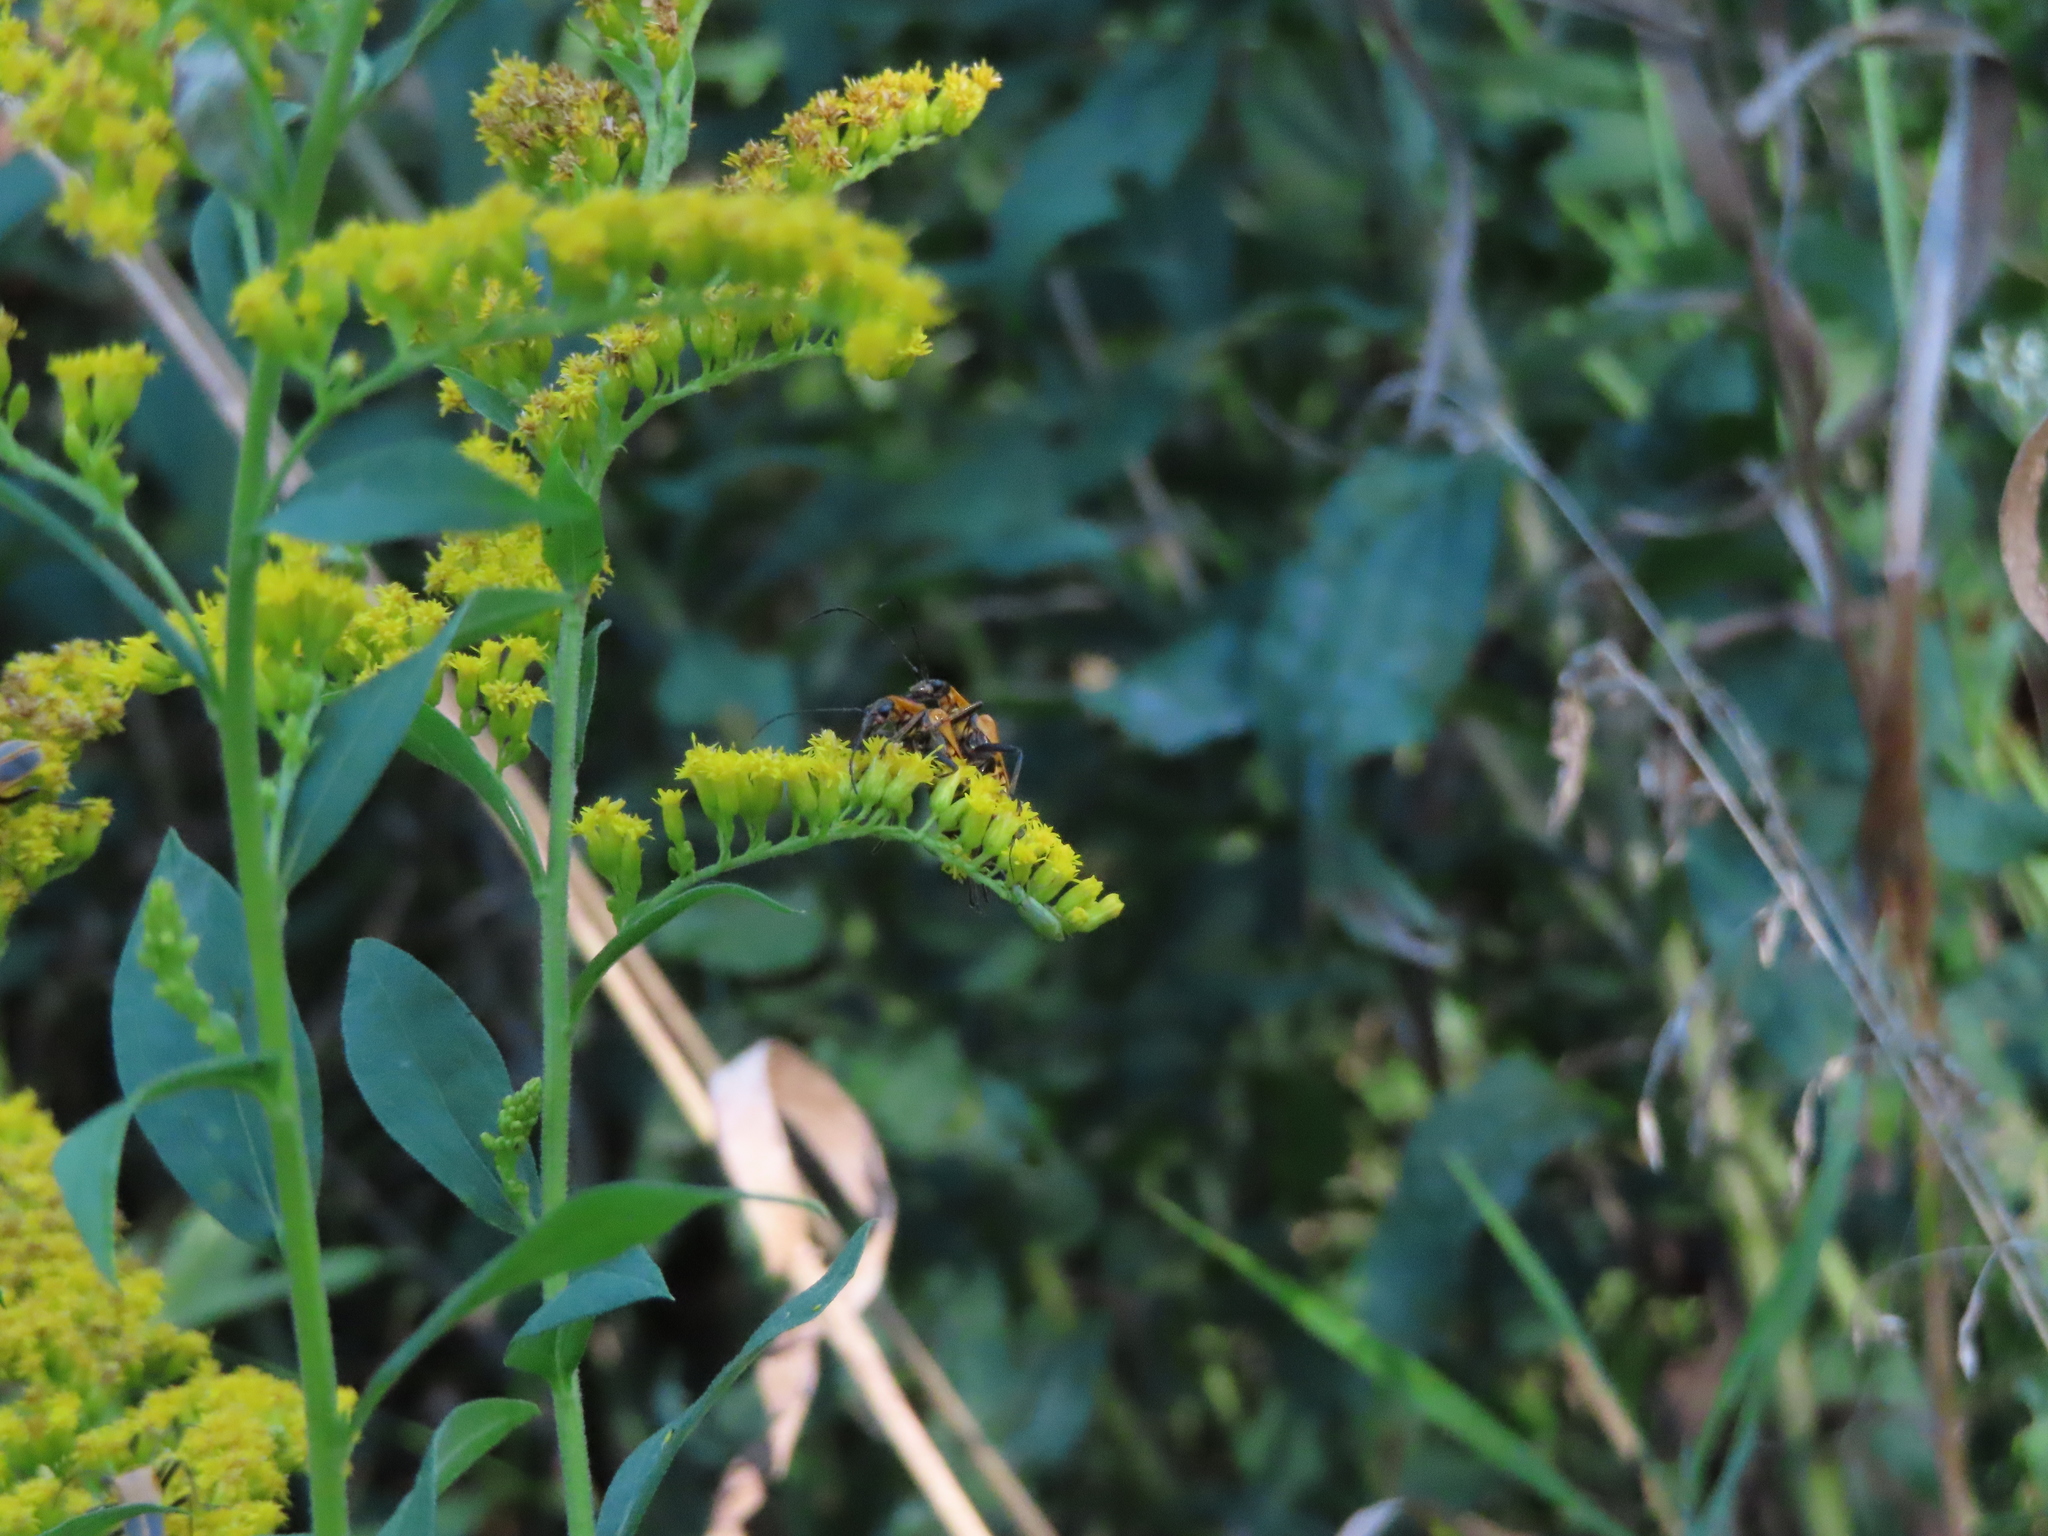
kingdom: Animalia
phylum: Arthropoda
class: Insecta
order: Coleoptera
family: Cantharidae
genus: Chauliognathus
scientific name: Chauliognathus pensylvanicus
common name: Goldenrod soldier beetle
